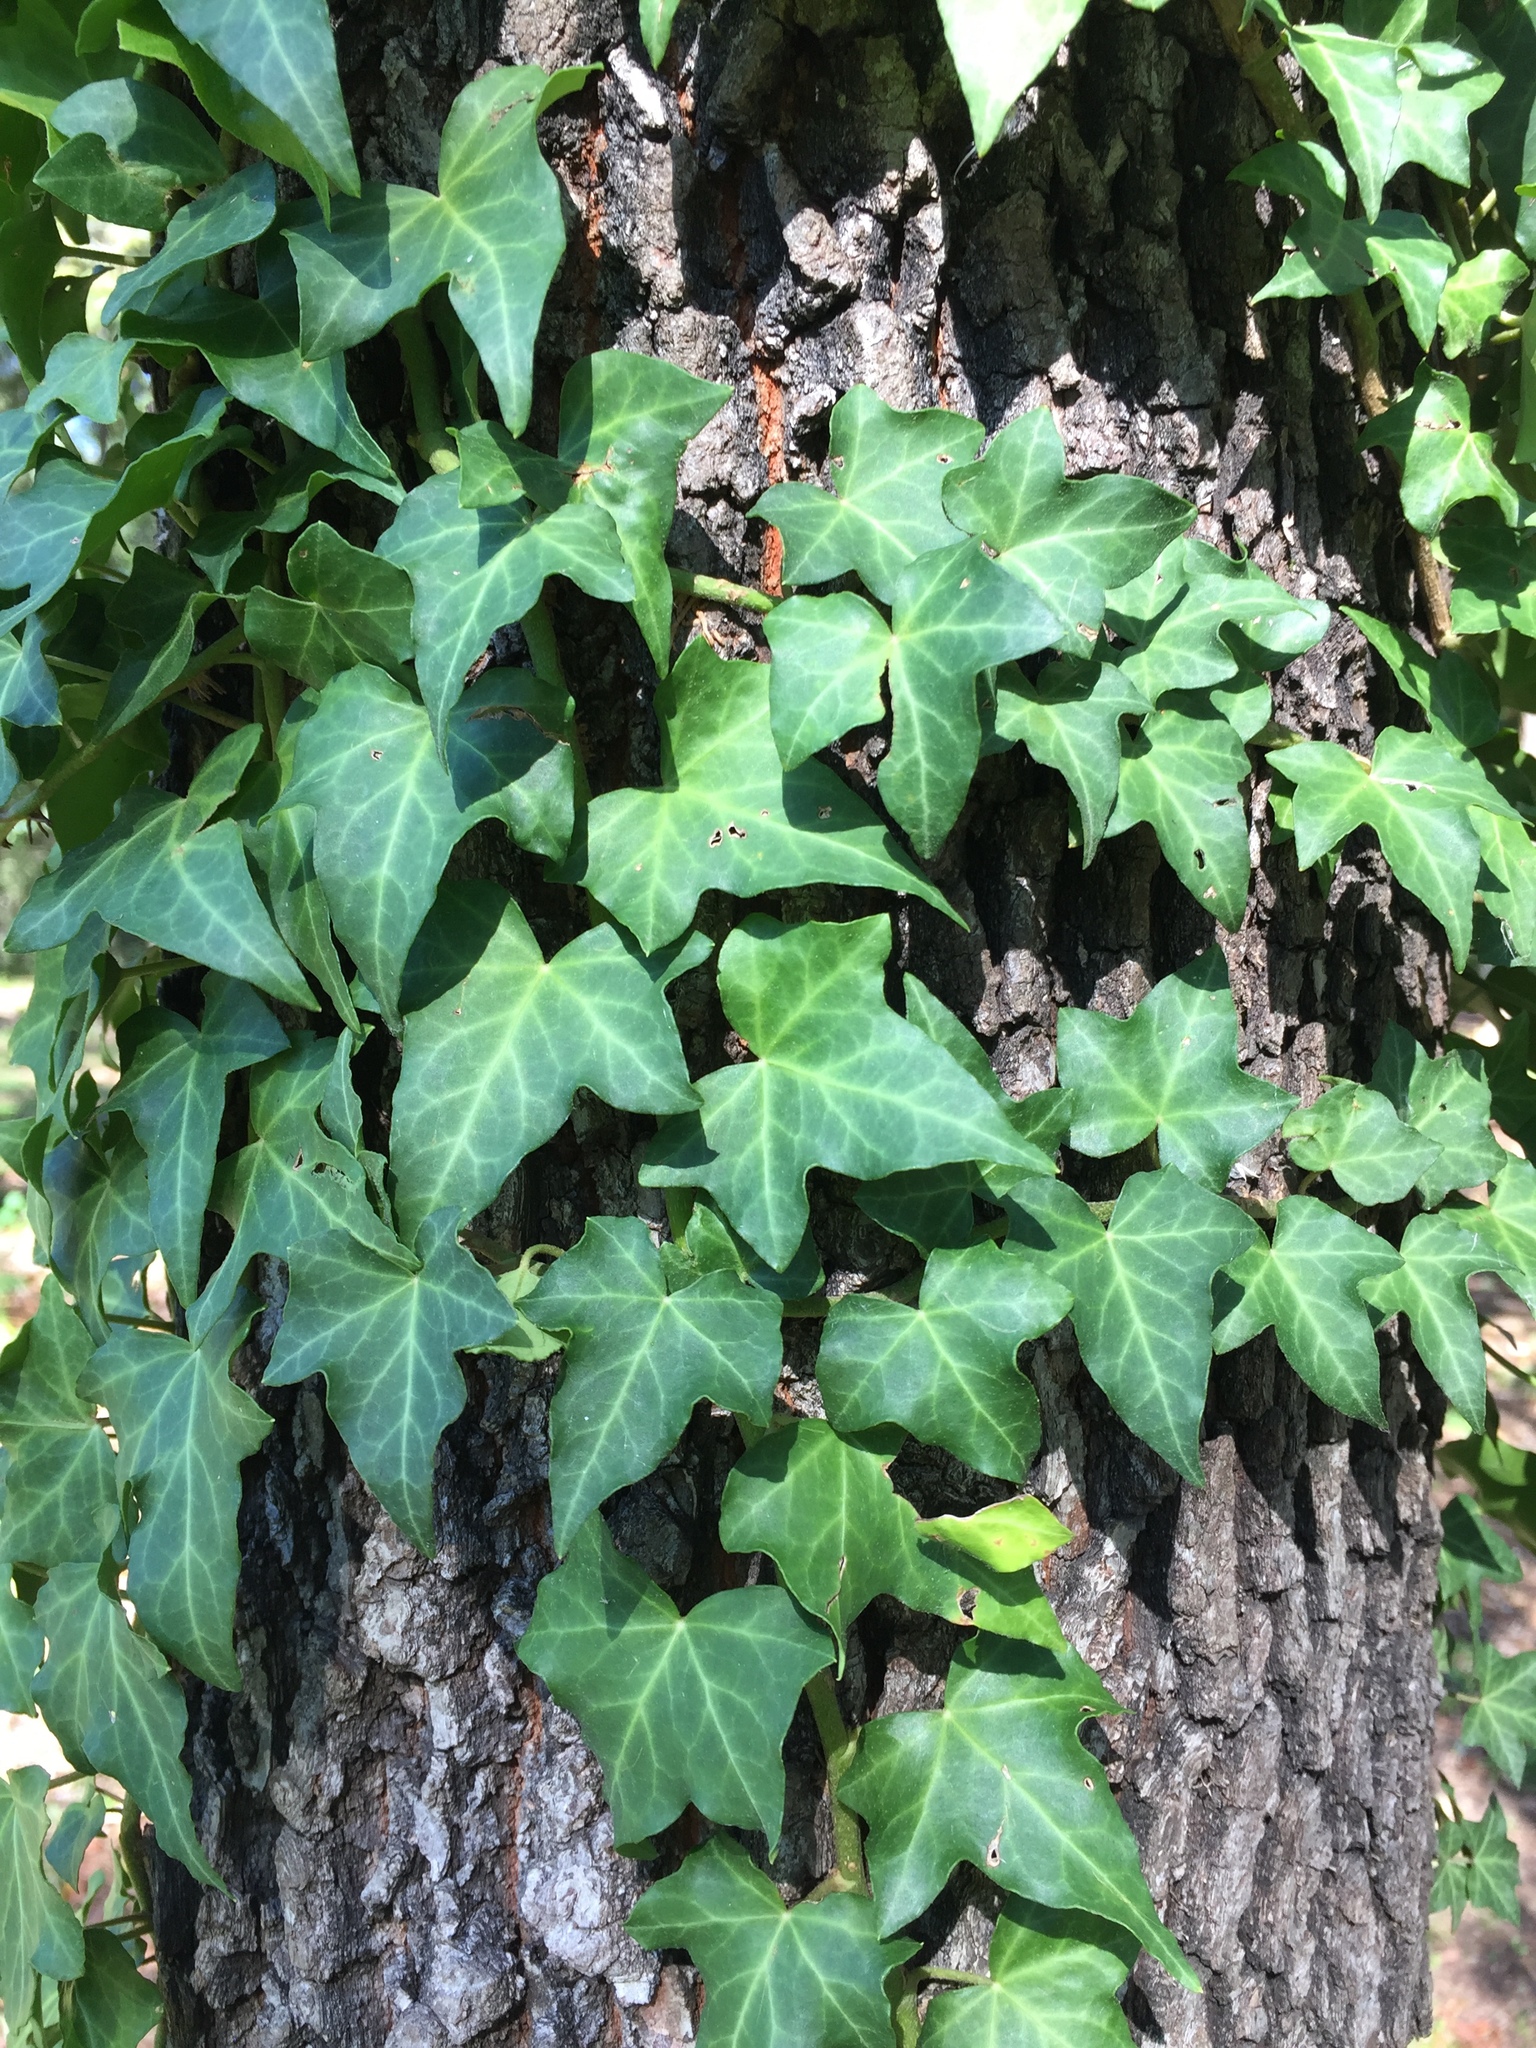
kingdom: Plantae
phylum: Tracheophyta
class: Magnoliopsida
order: Apiales
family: Araliaceae
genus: Hedera
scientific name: Hedera helix
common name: Ivy
